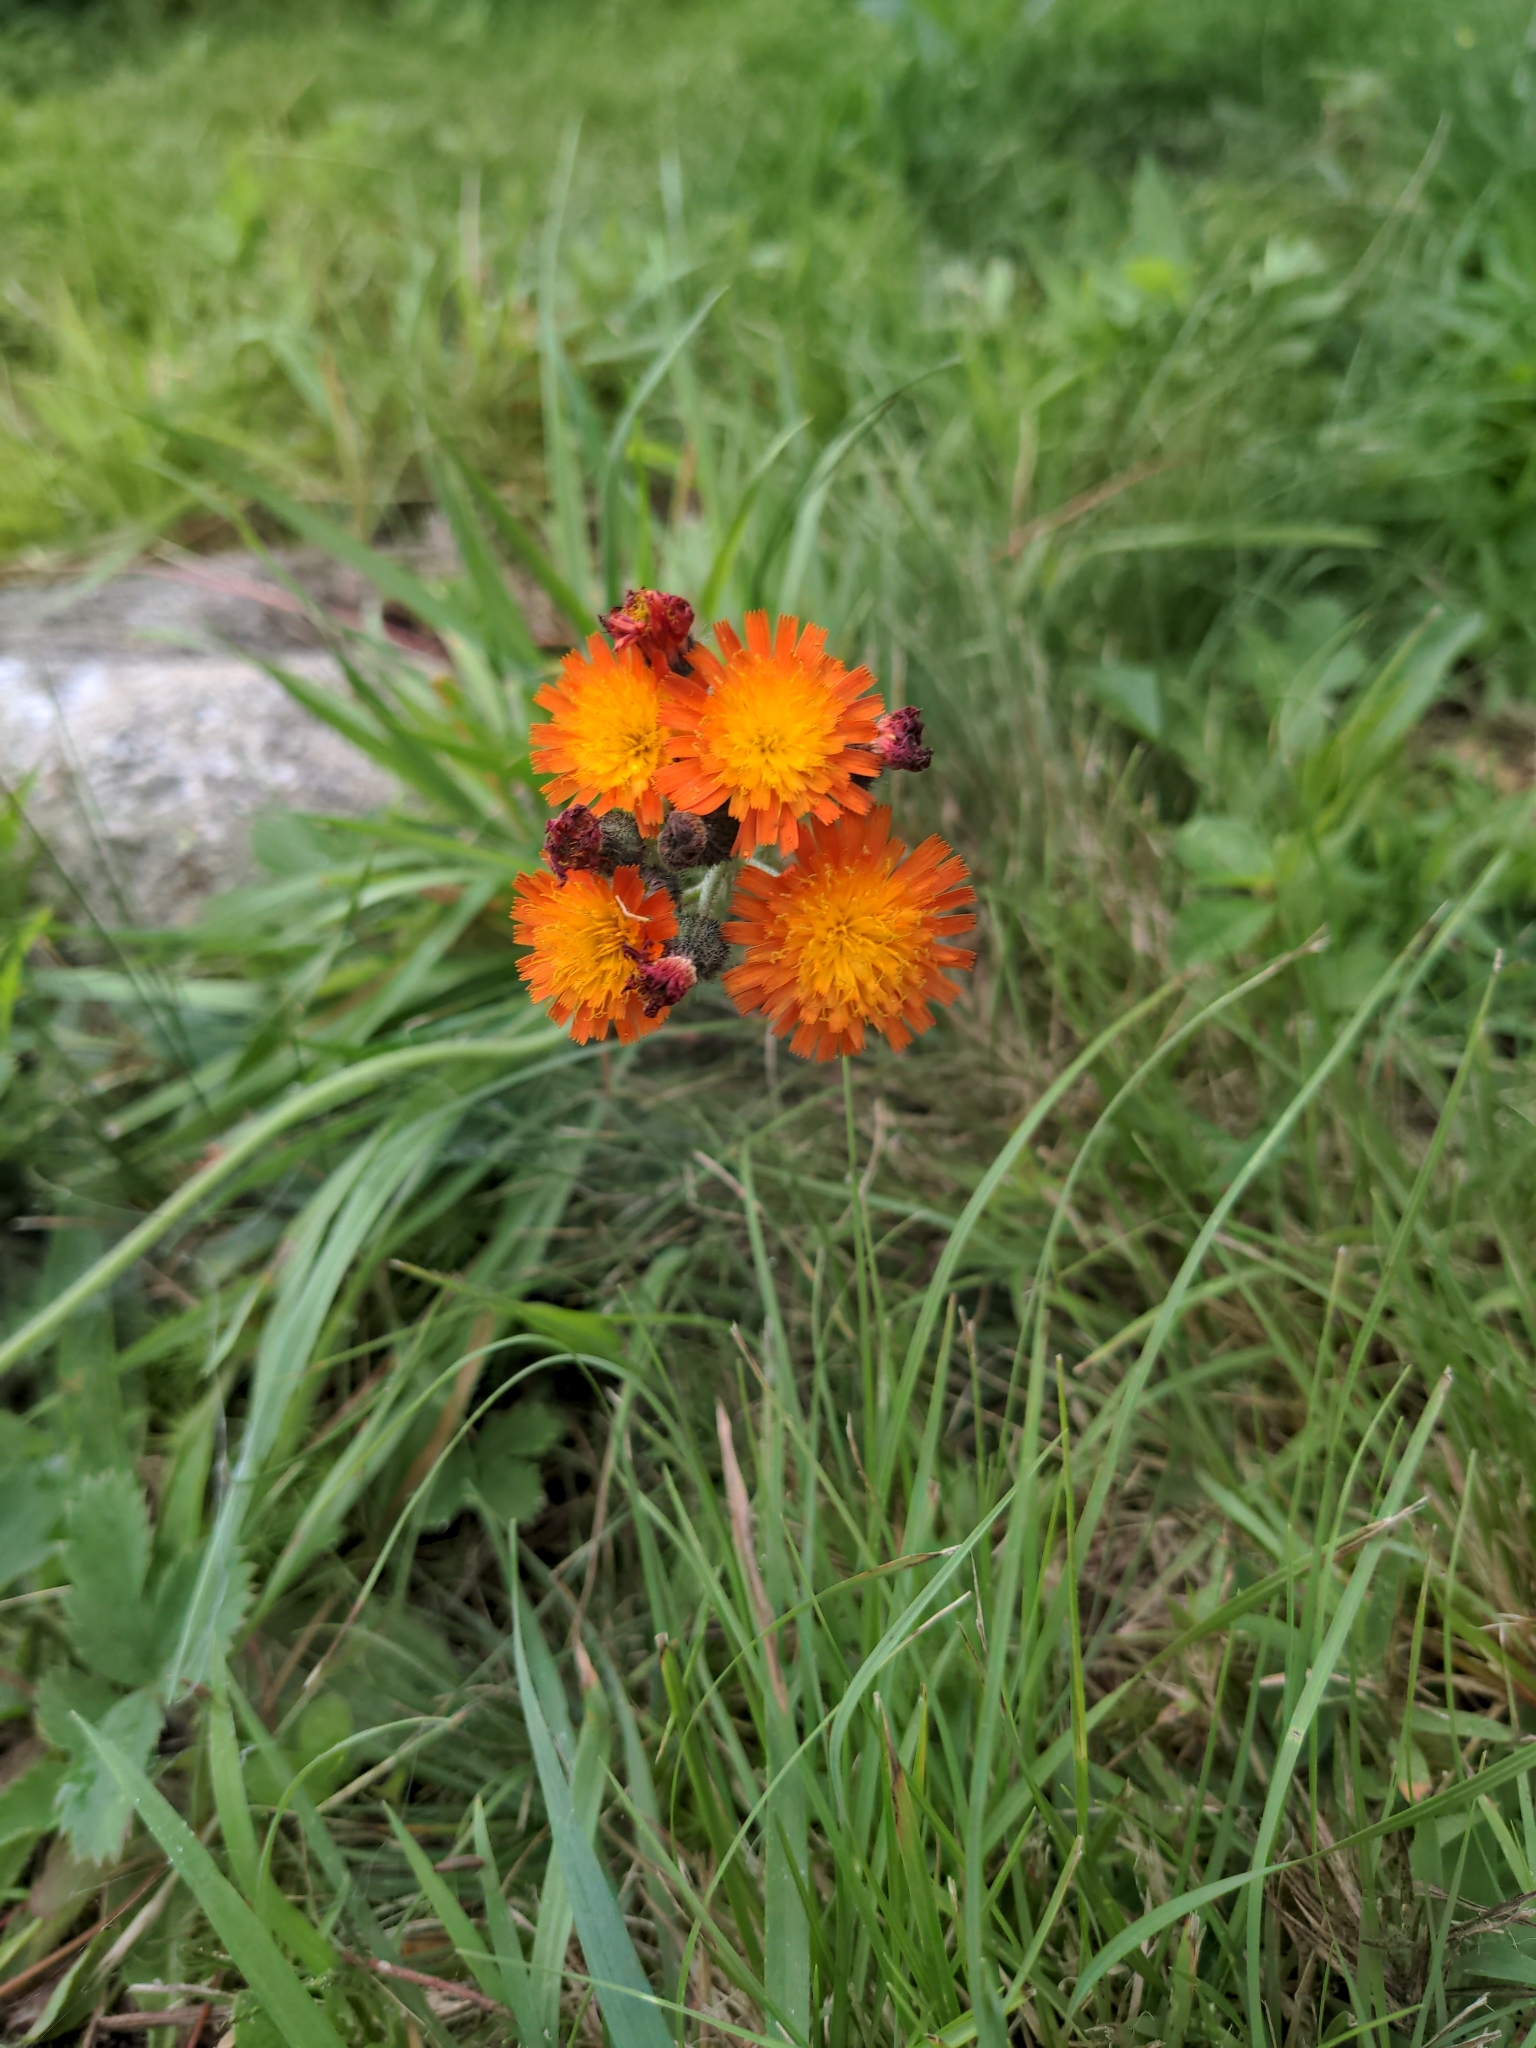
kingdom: Plantae
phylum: Tracheophyta
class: Magnoliopsida
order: Asterales
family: Asteraceae
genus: Pilosella
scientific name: Pilosella aurantiaca
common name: Fox-and-cubs
